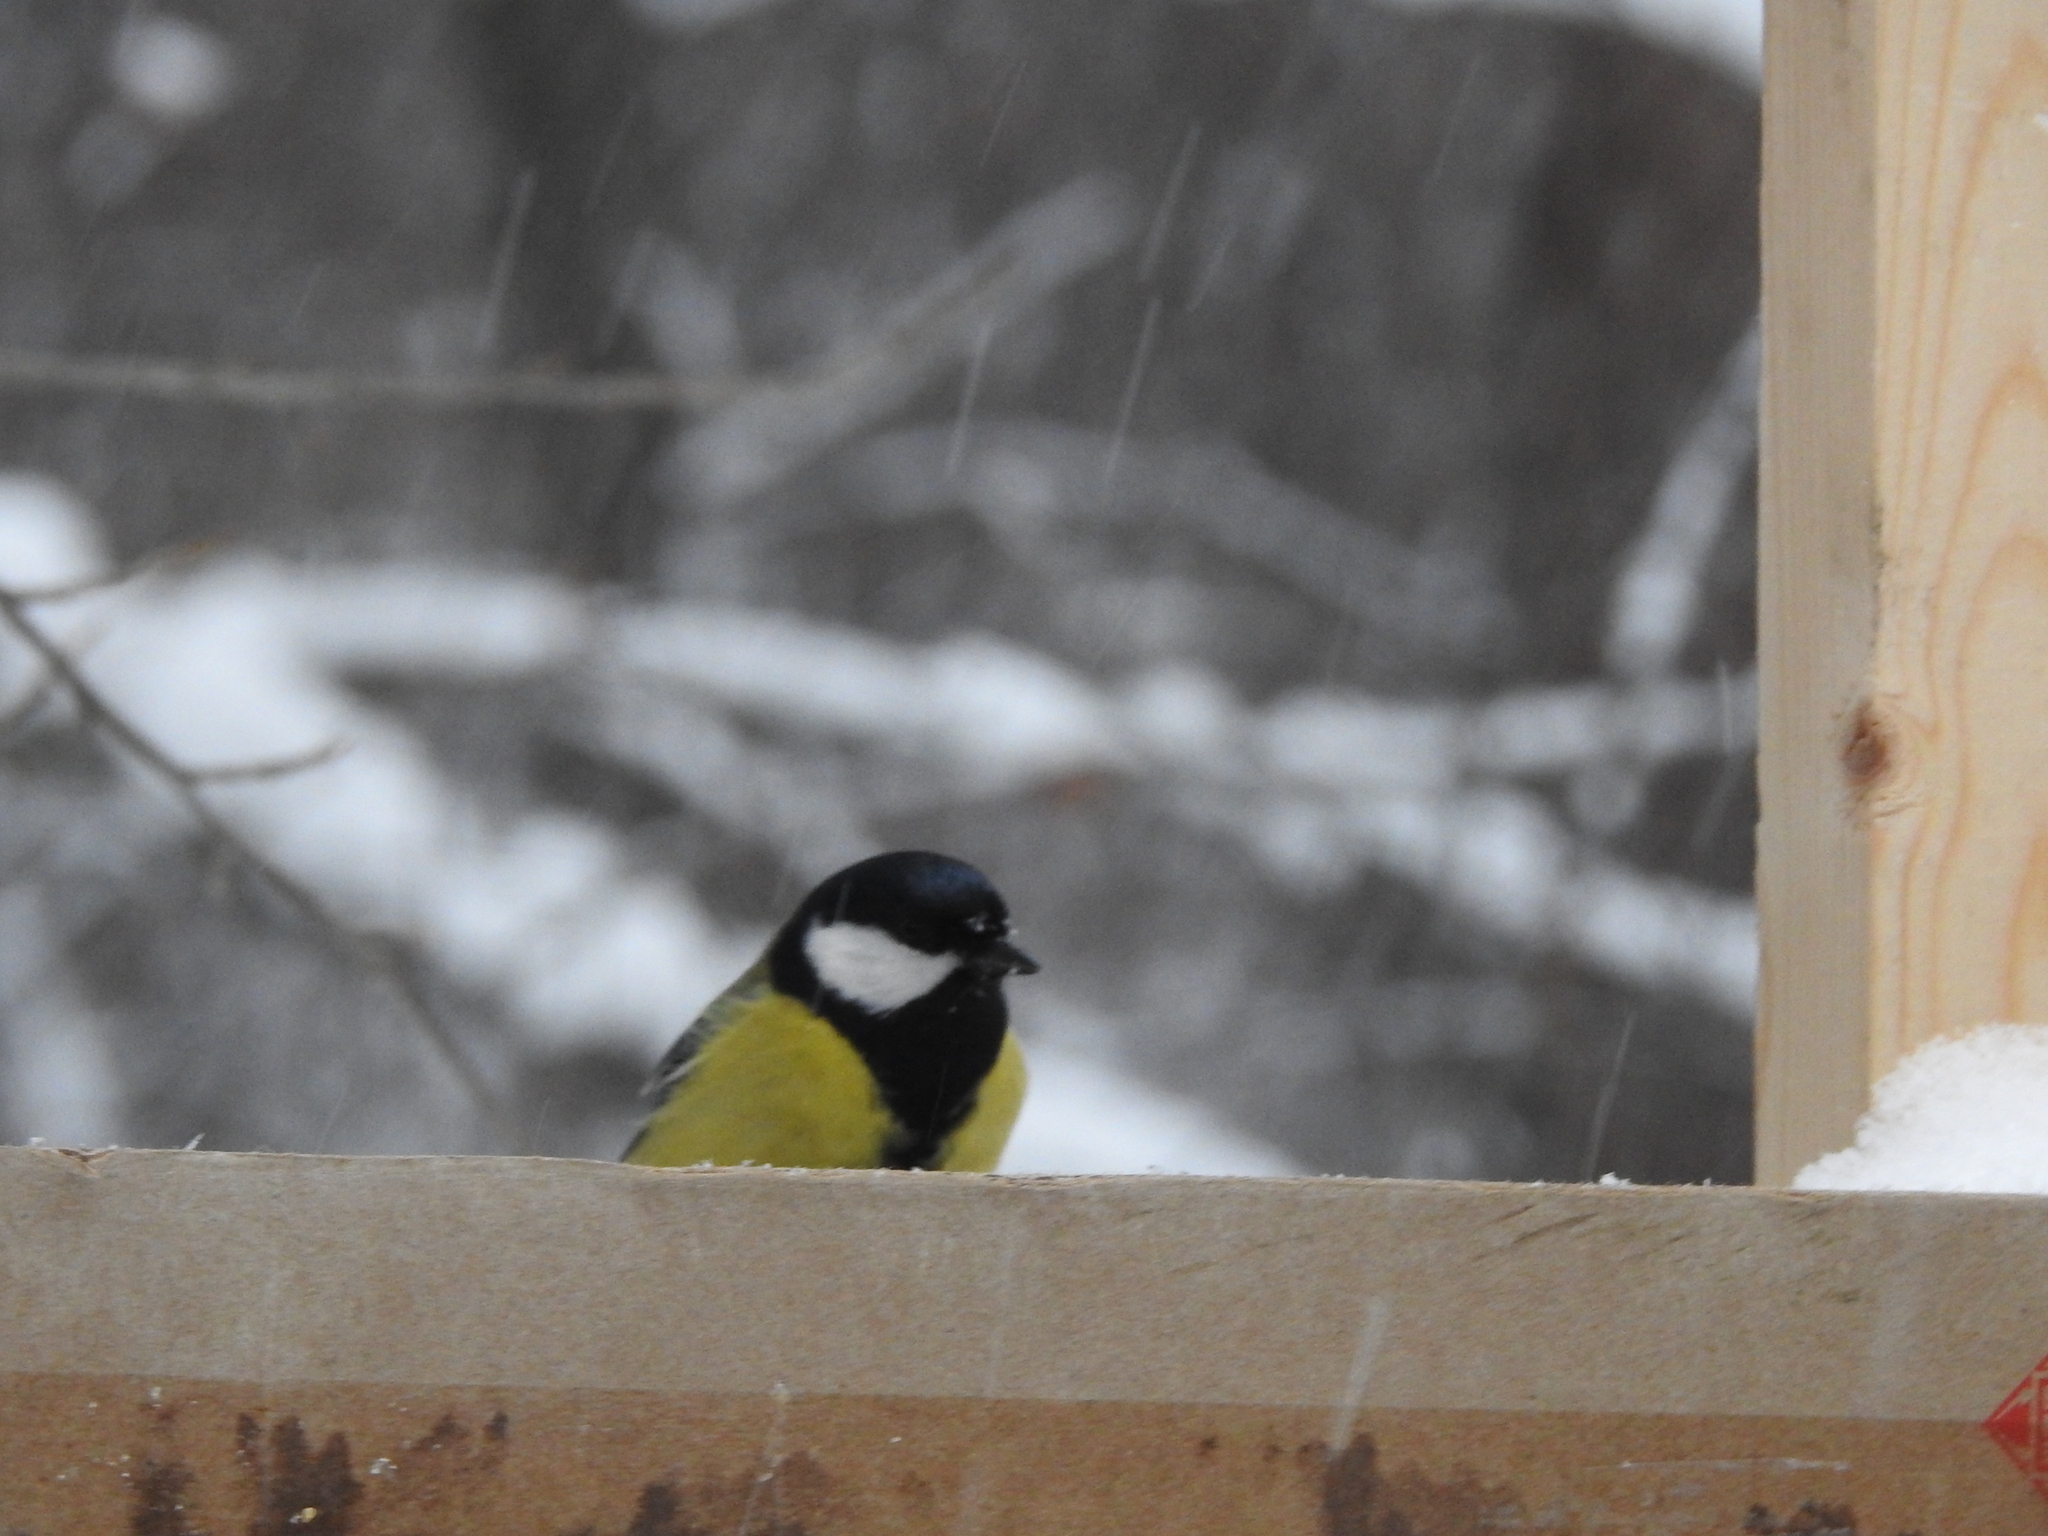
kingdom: Animalia
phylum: Chordata
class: Aves
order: Passeriformes
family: Paridae
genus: Parus
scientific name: Parus major
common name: Great tit
